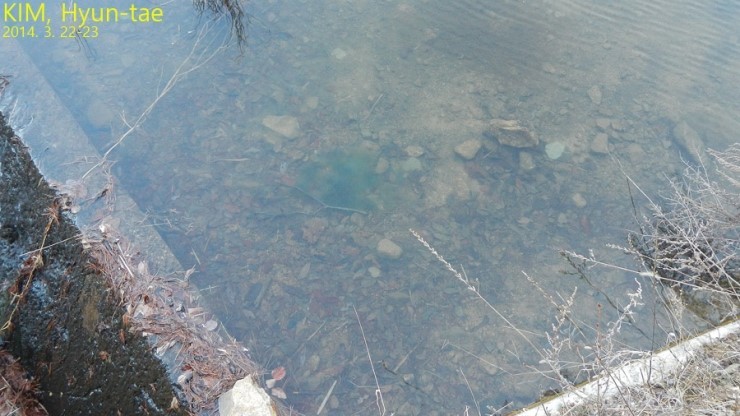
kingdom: Animalia
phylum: Chordata
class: Amphibia
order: Anura
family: Ranidae
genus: Rana
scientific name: Rana huanrenensis
